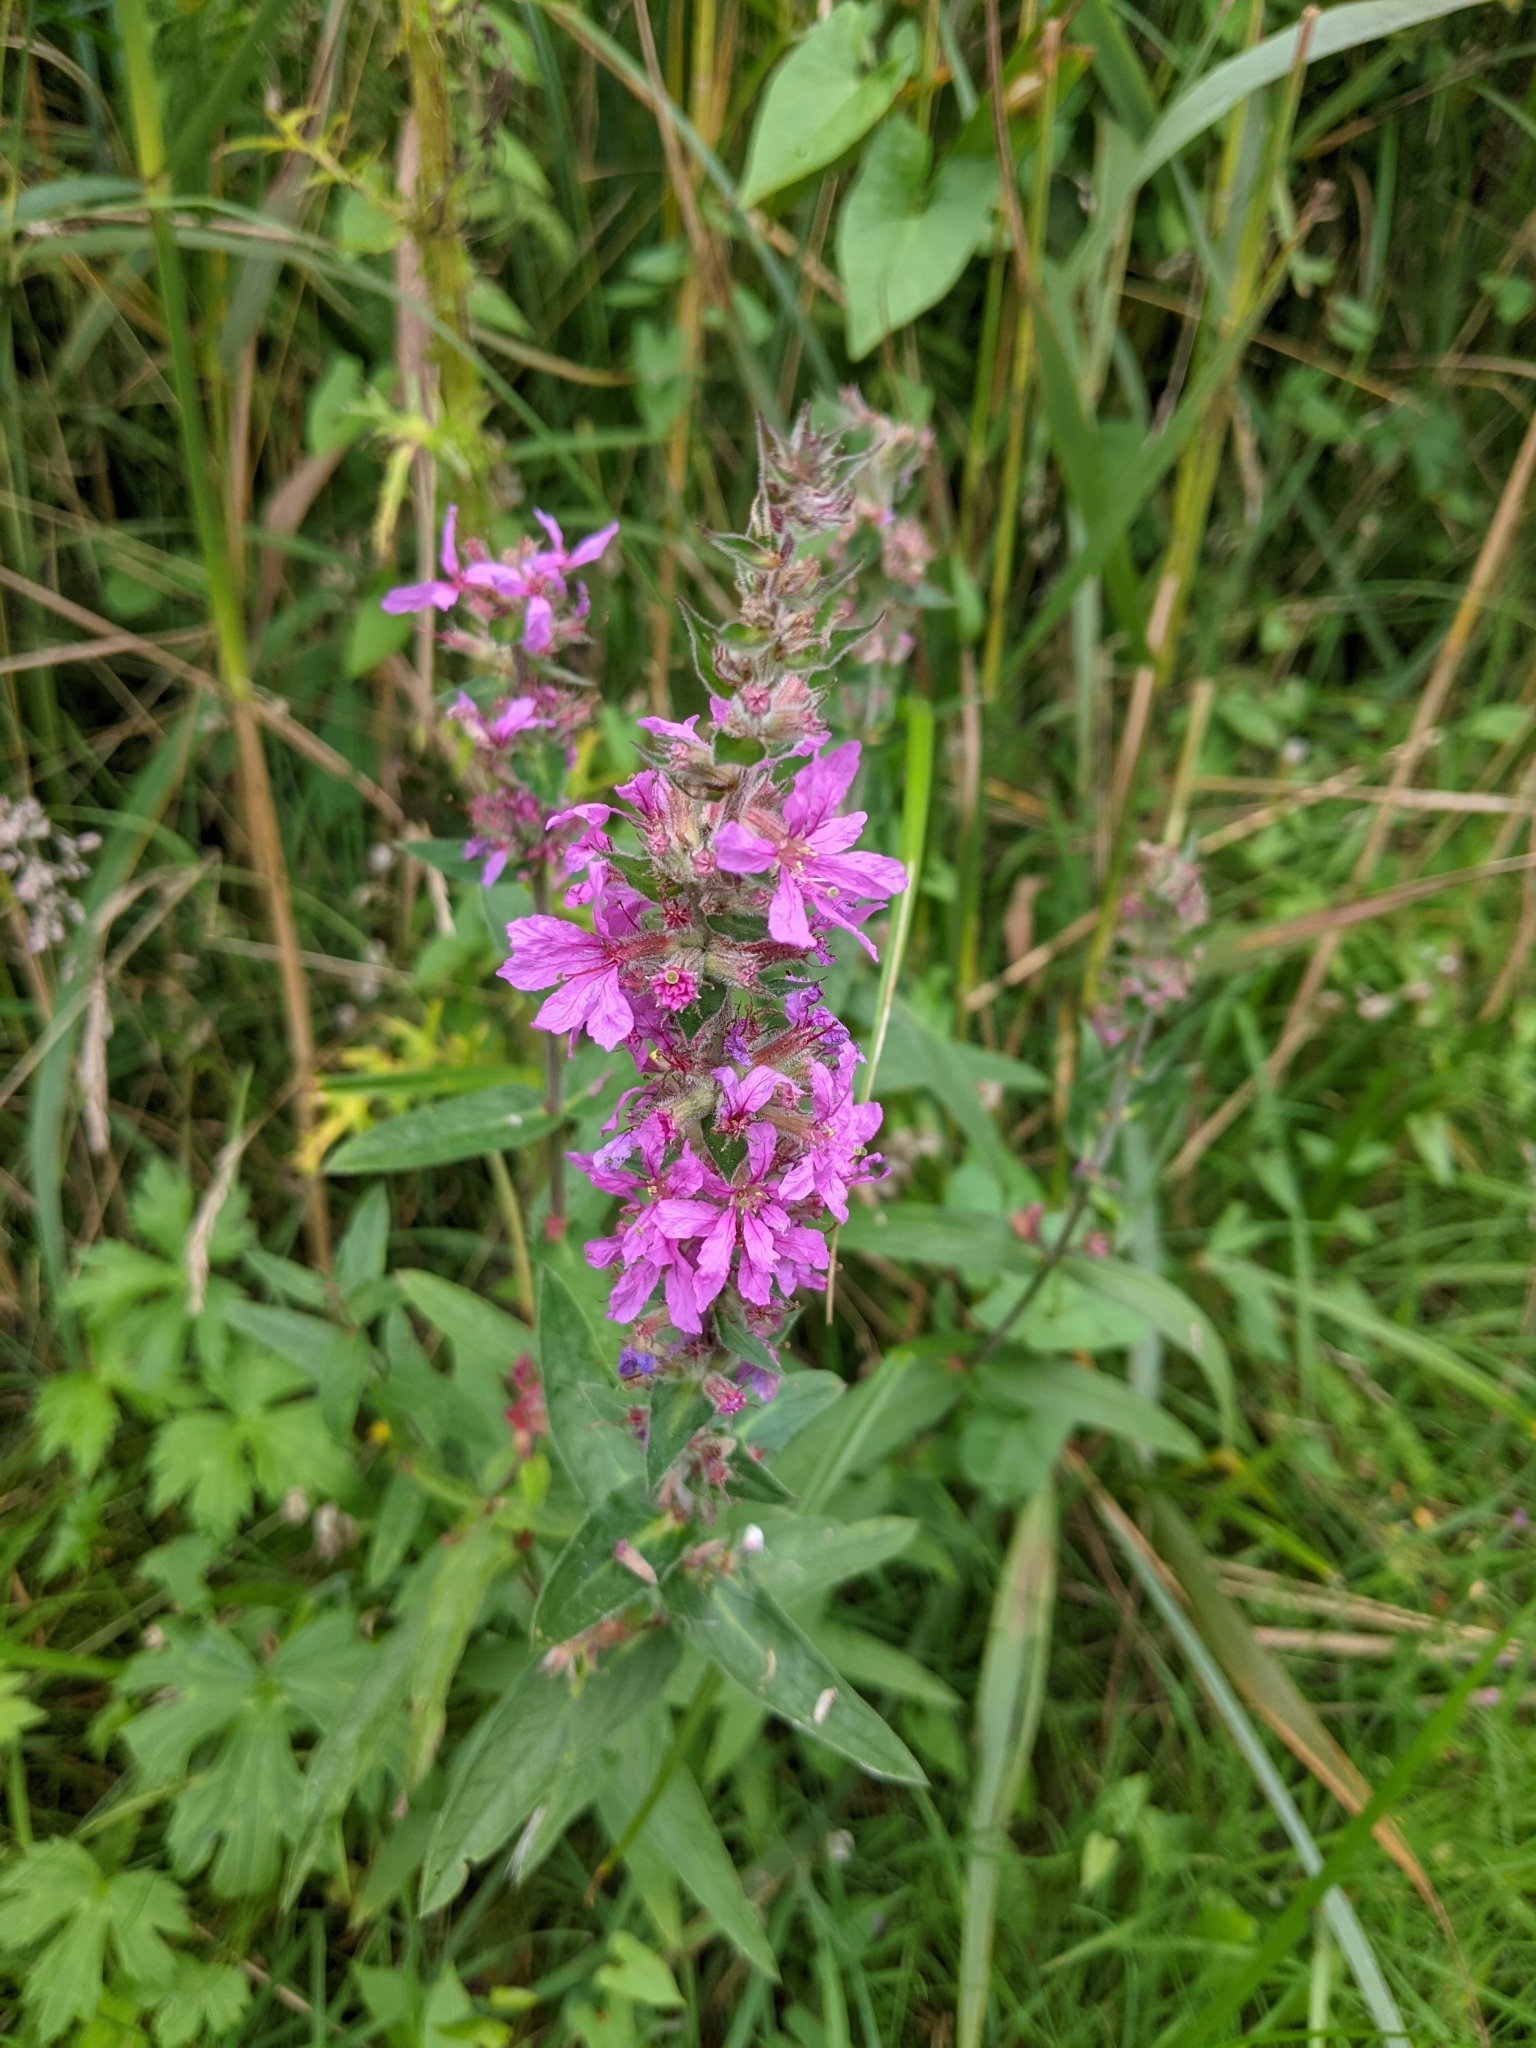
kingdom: Plantae
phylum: Tracheophyta
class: Magnoliopsida
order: Myrtales
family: Lythraceae
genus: Lythrum
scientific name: Lythrum salicaria
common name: Purple loosestrife
